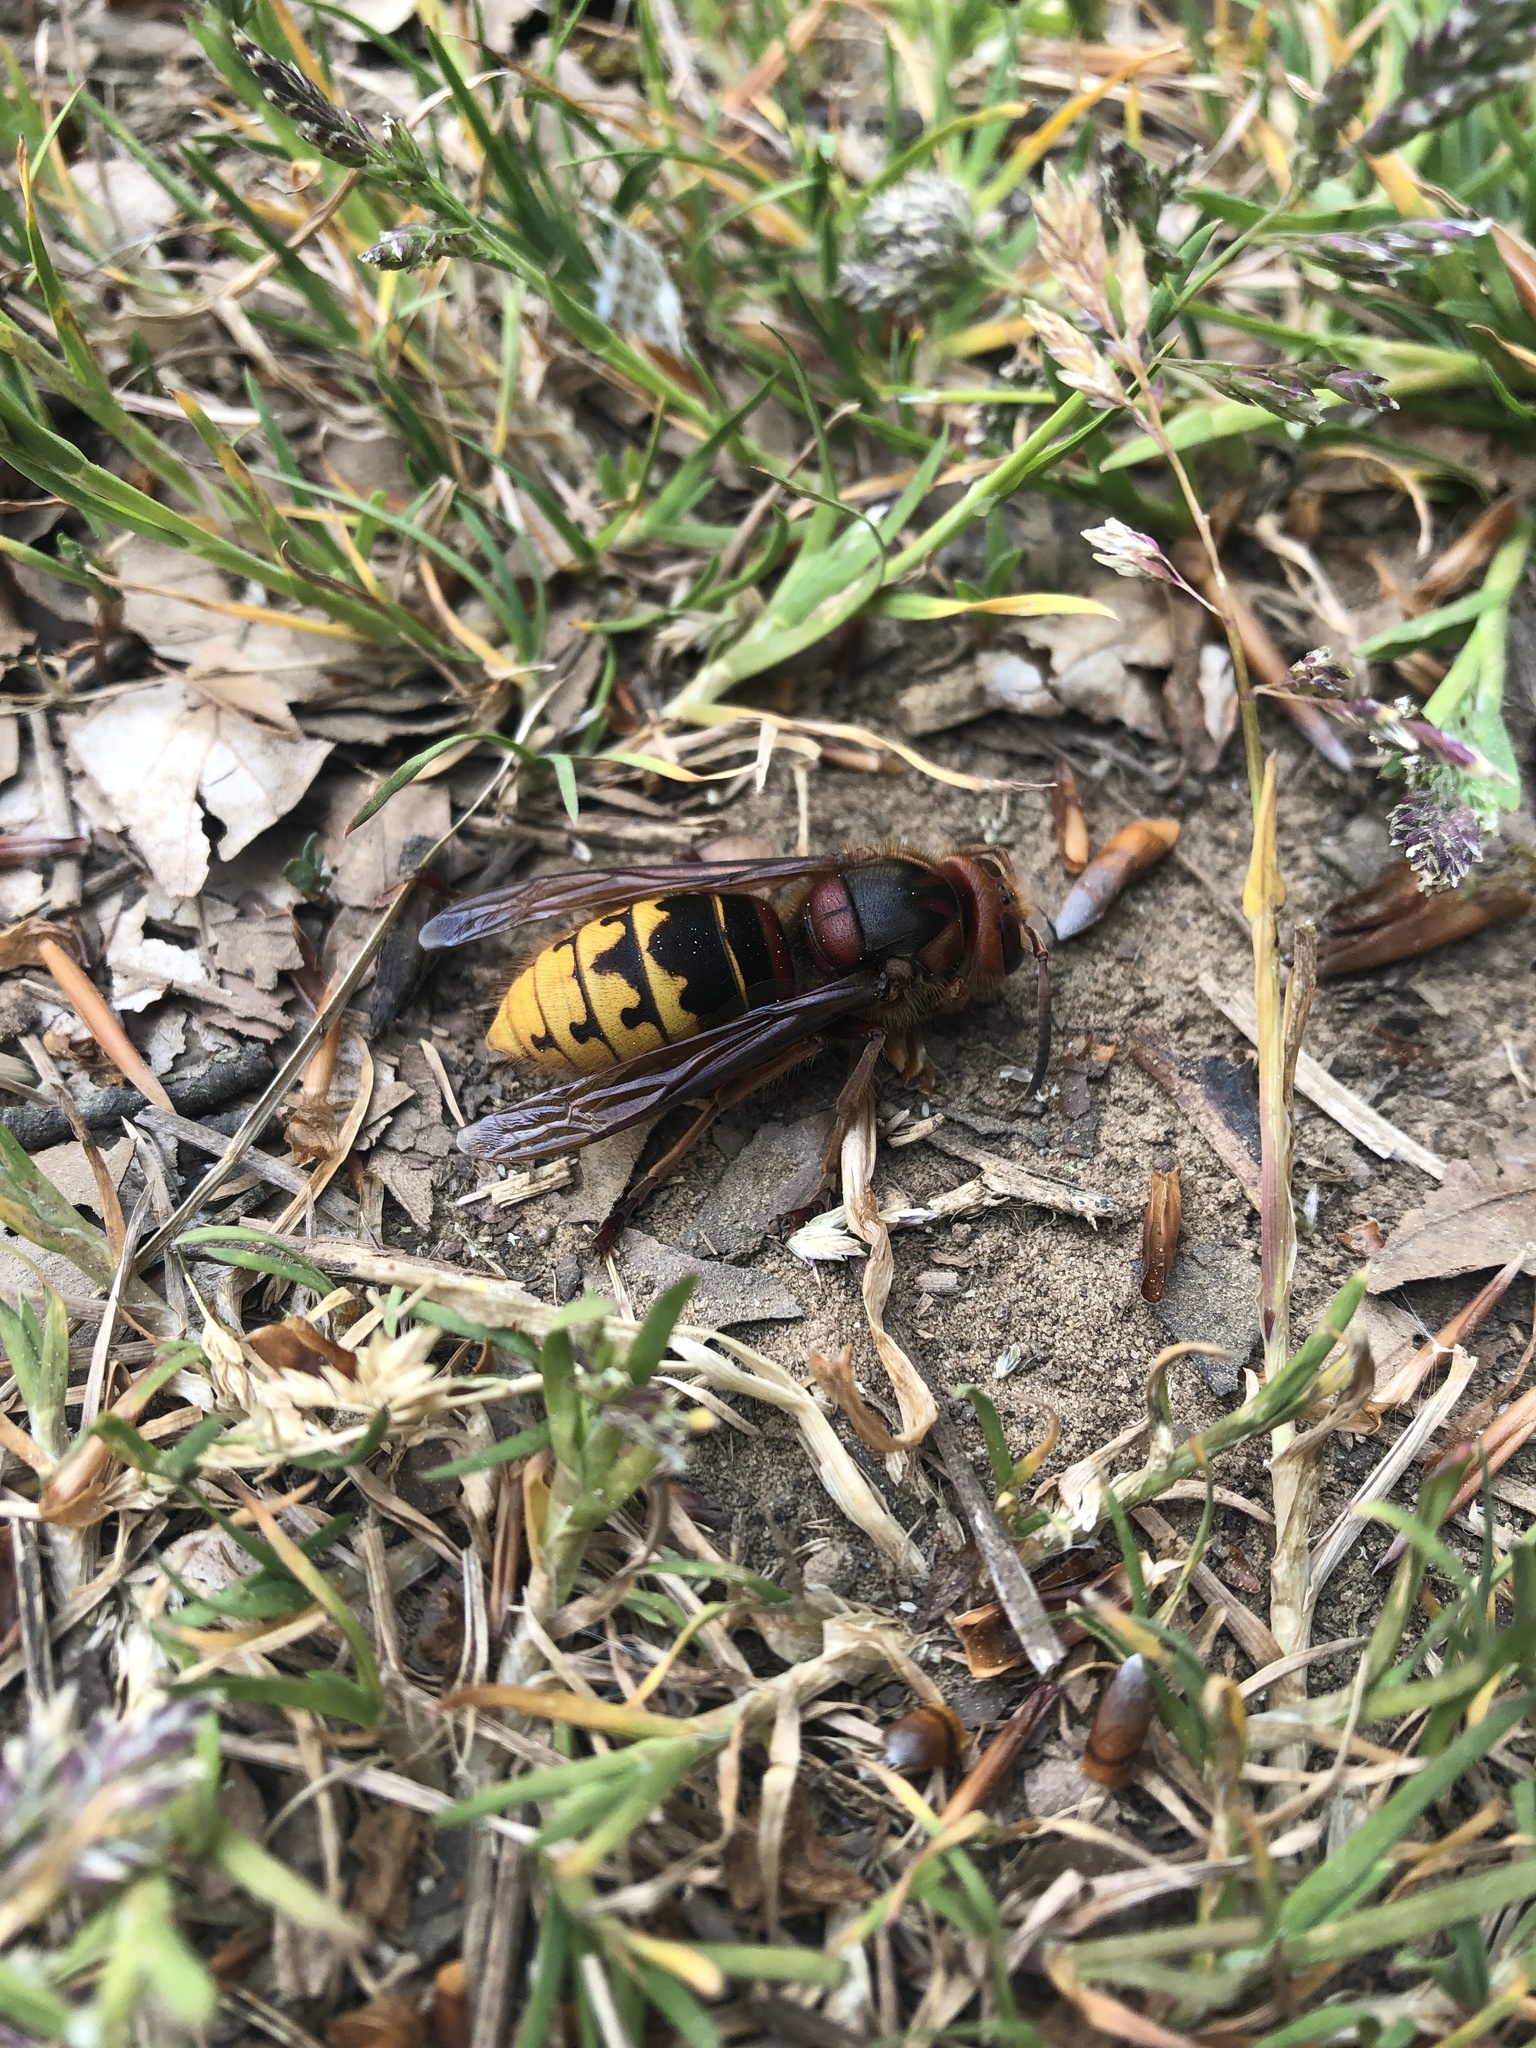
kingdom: Animalia
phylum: Arthropoda
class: Insecta
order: Hymenoptera
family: Vespidae
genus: Vespa
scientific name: Vespa crabro
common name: Hornet
